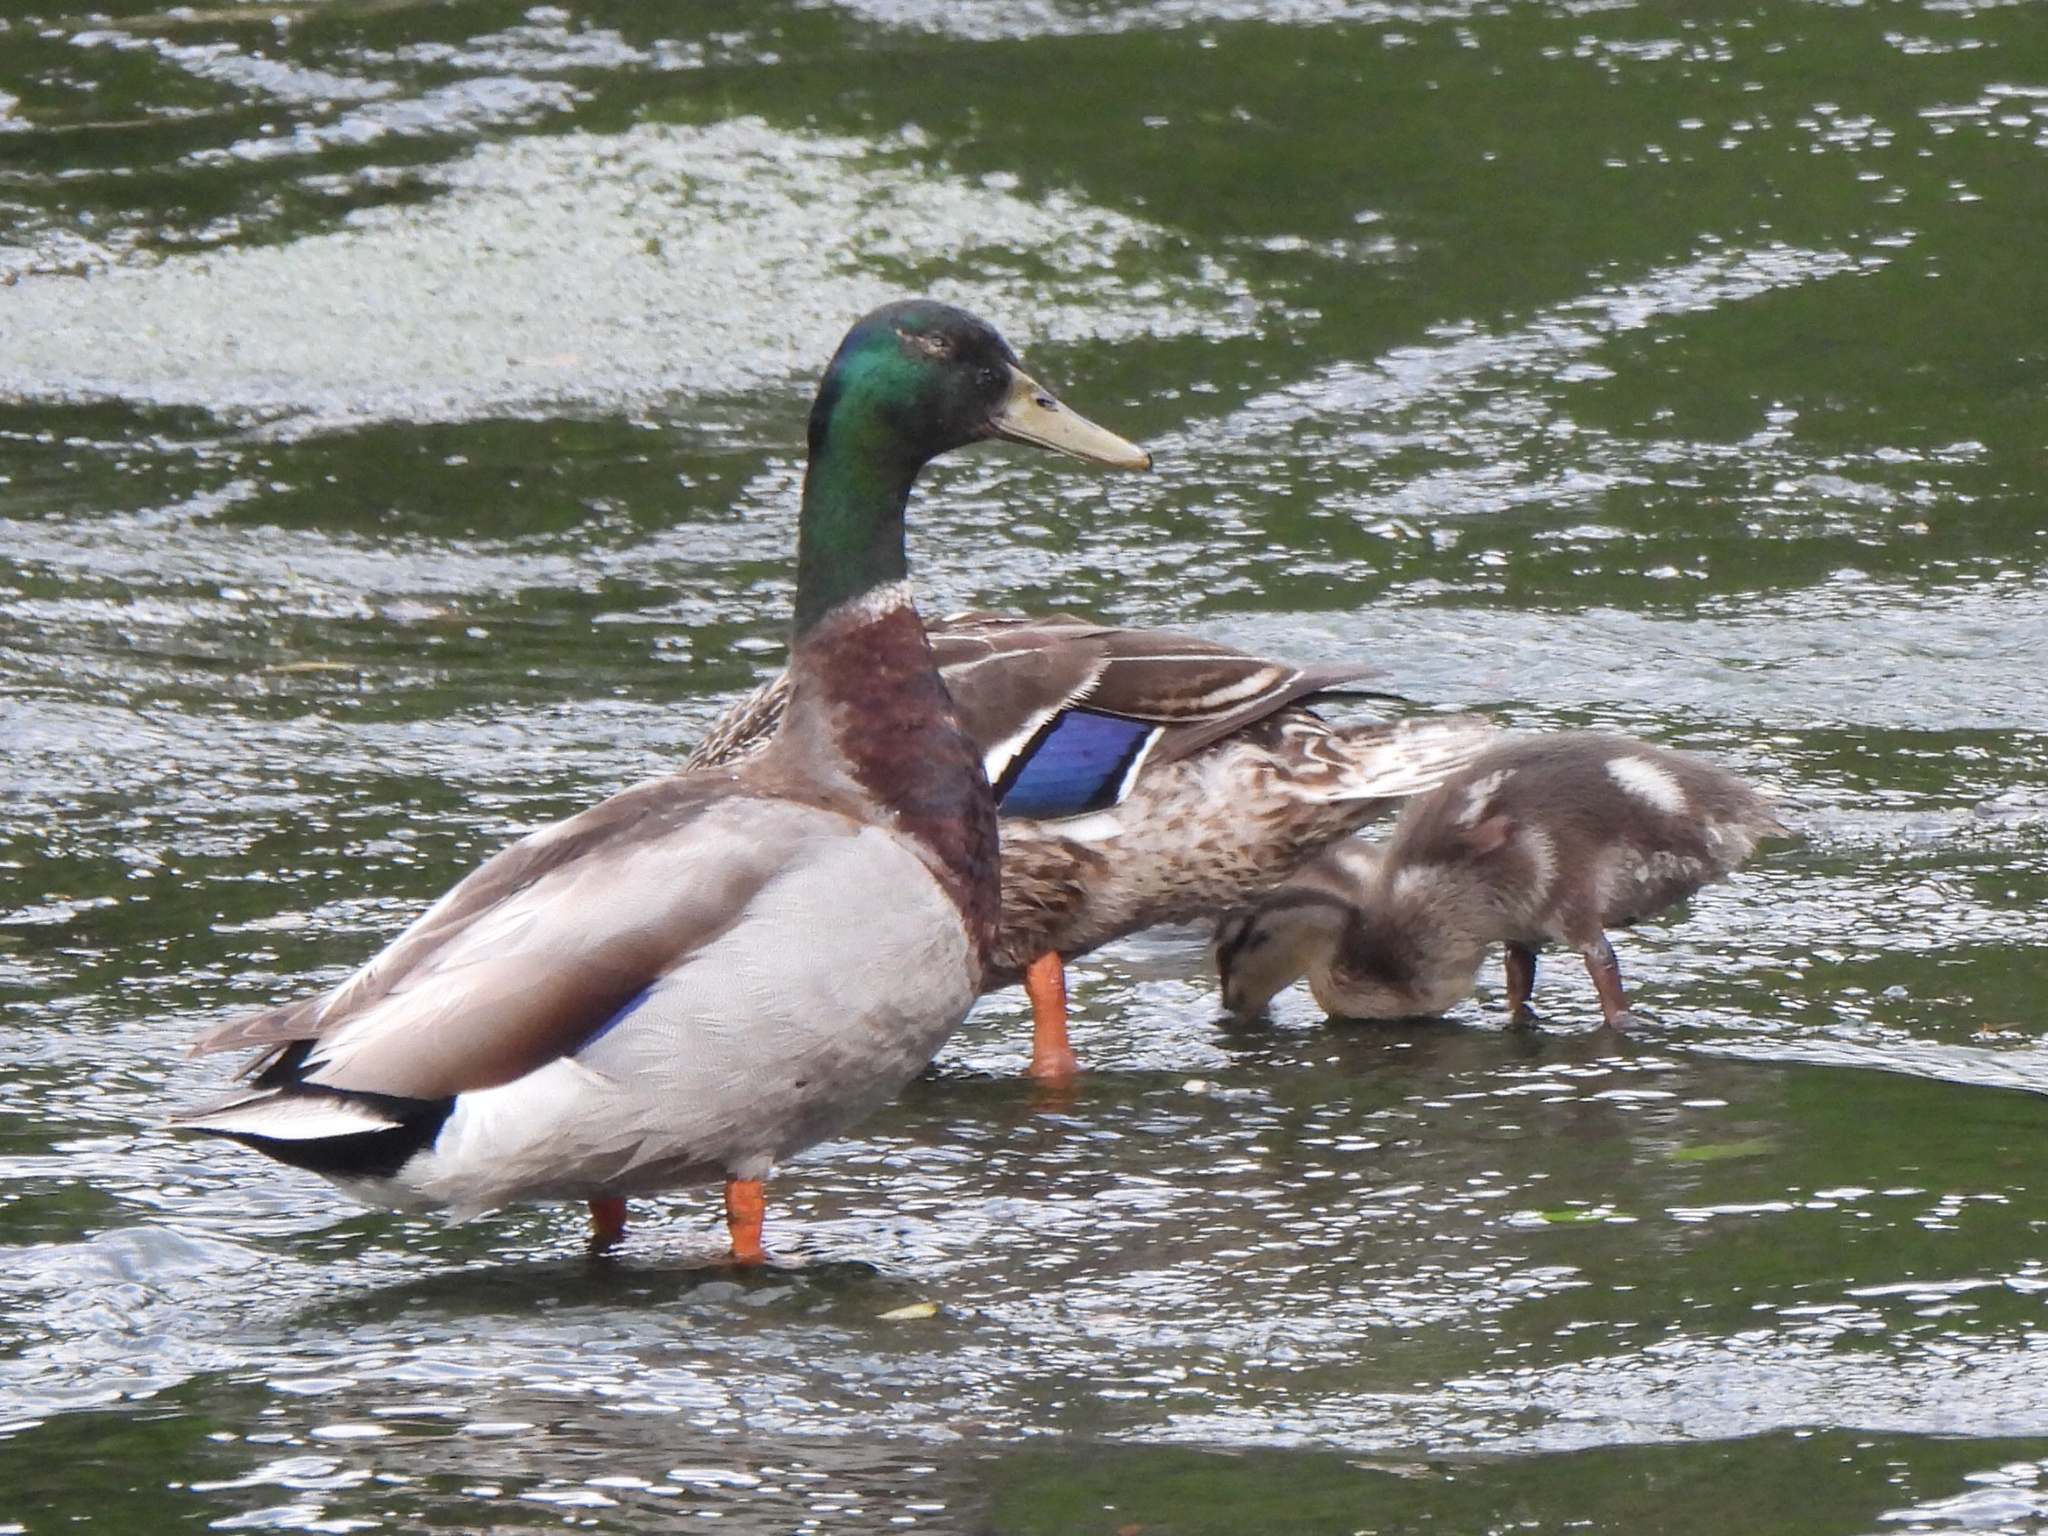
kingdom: Animalia
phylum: Chordata
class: Aves
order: Anseriformes
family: Anatidae
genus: Anas
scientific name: Anas platyrhynchos
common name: Mallard
